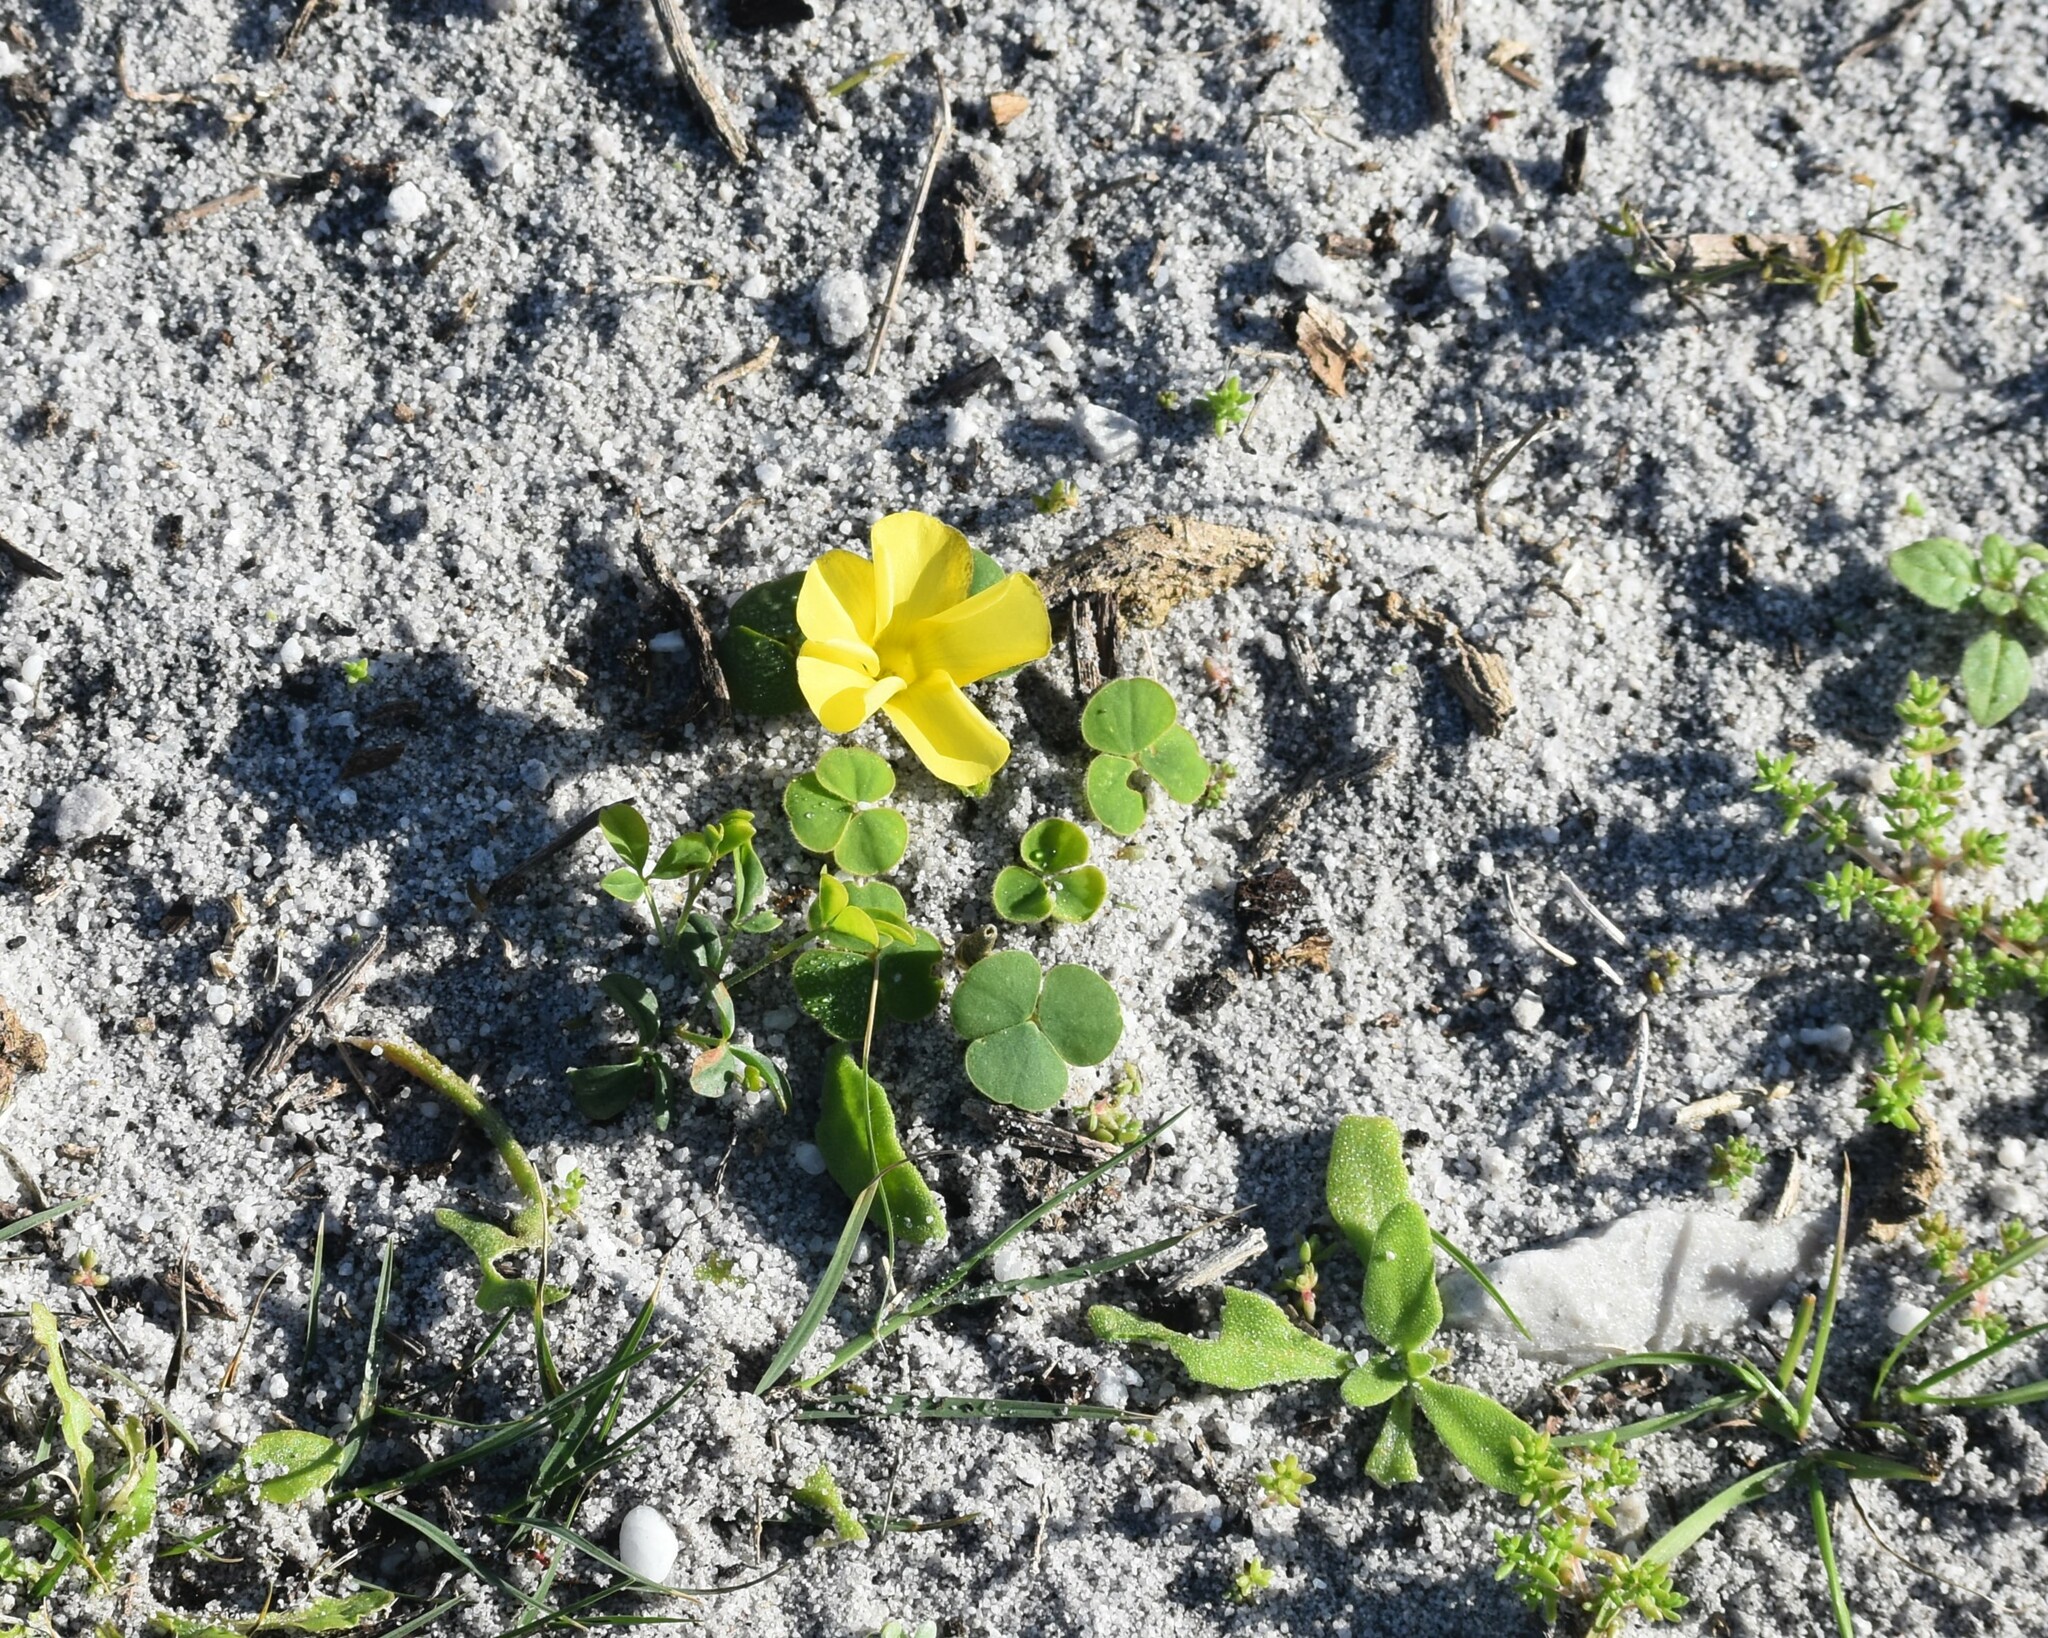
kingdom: Plantae
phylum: Tracheophyta
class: Magnoliopsida
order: Oxalidales
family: Oxalidaceae
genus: Oxalis
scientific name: Oxalis luteola
